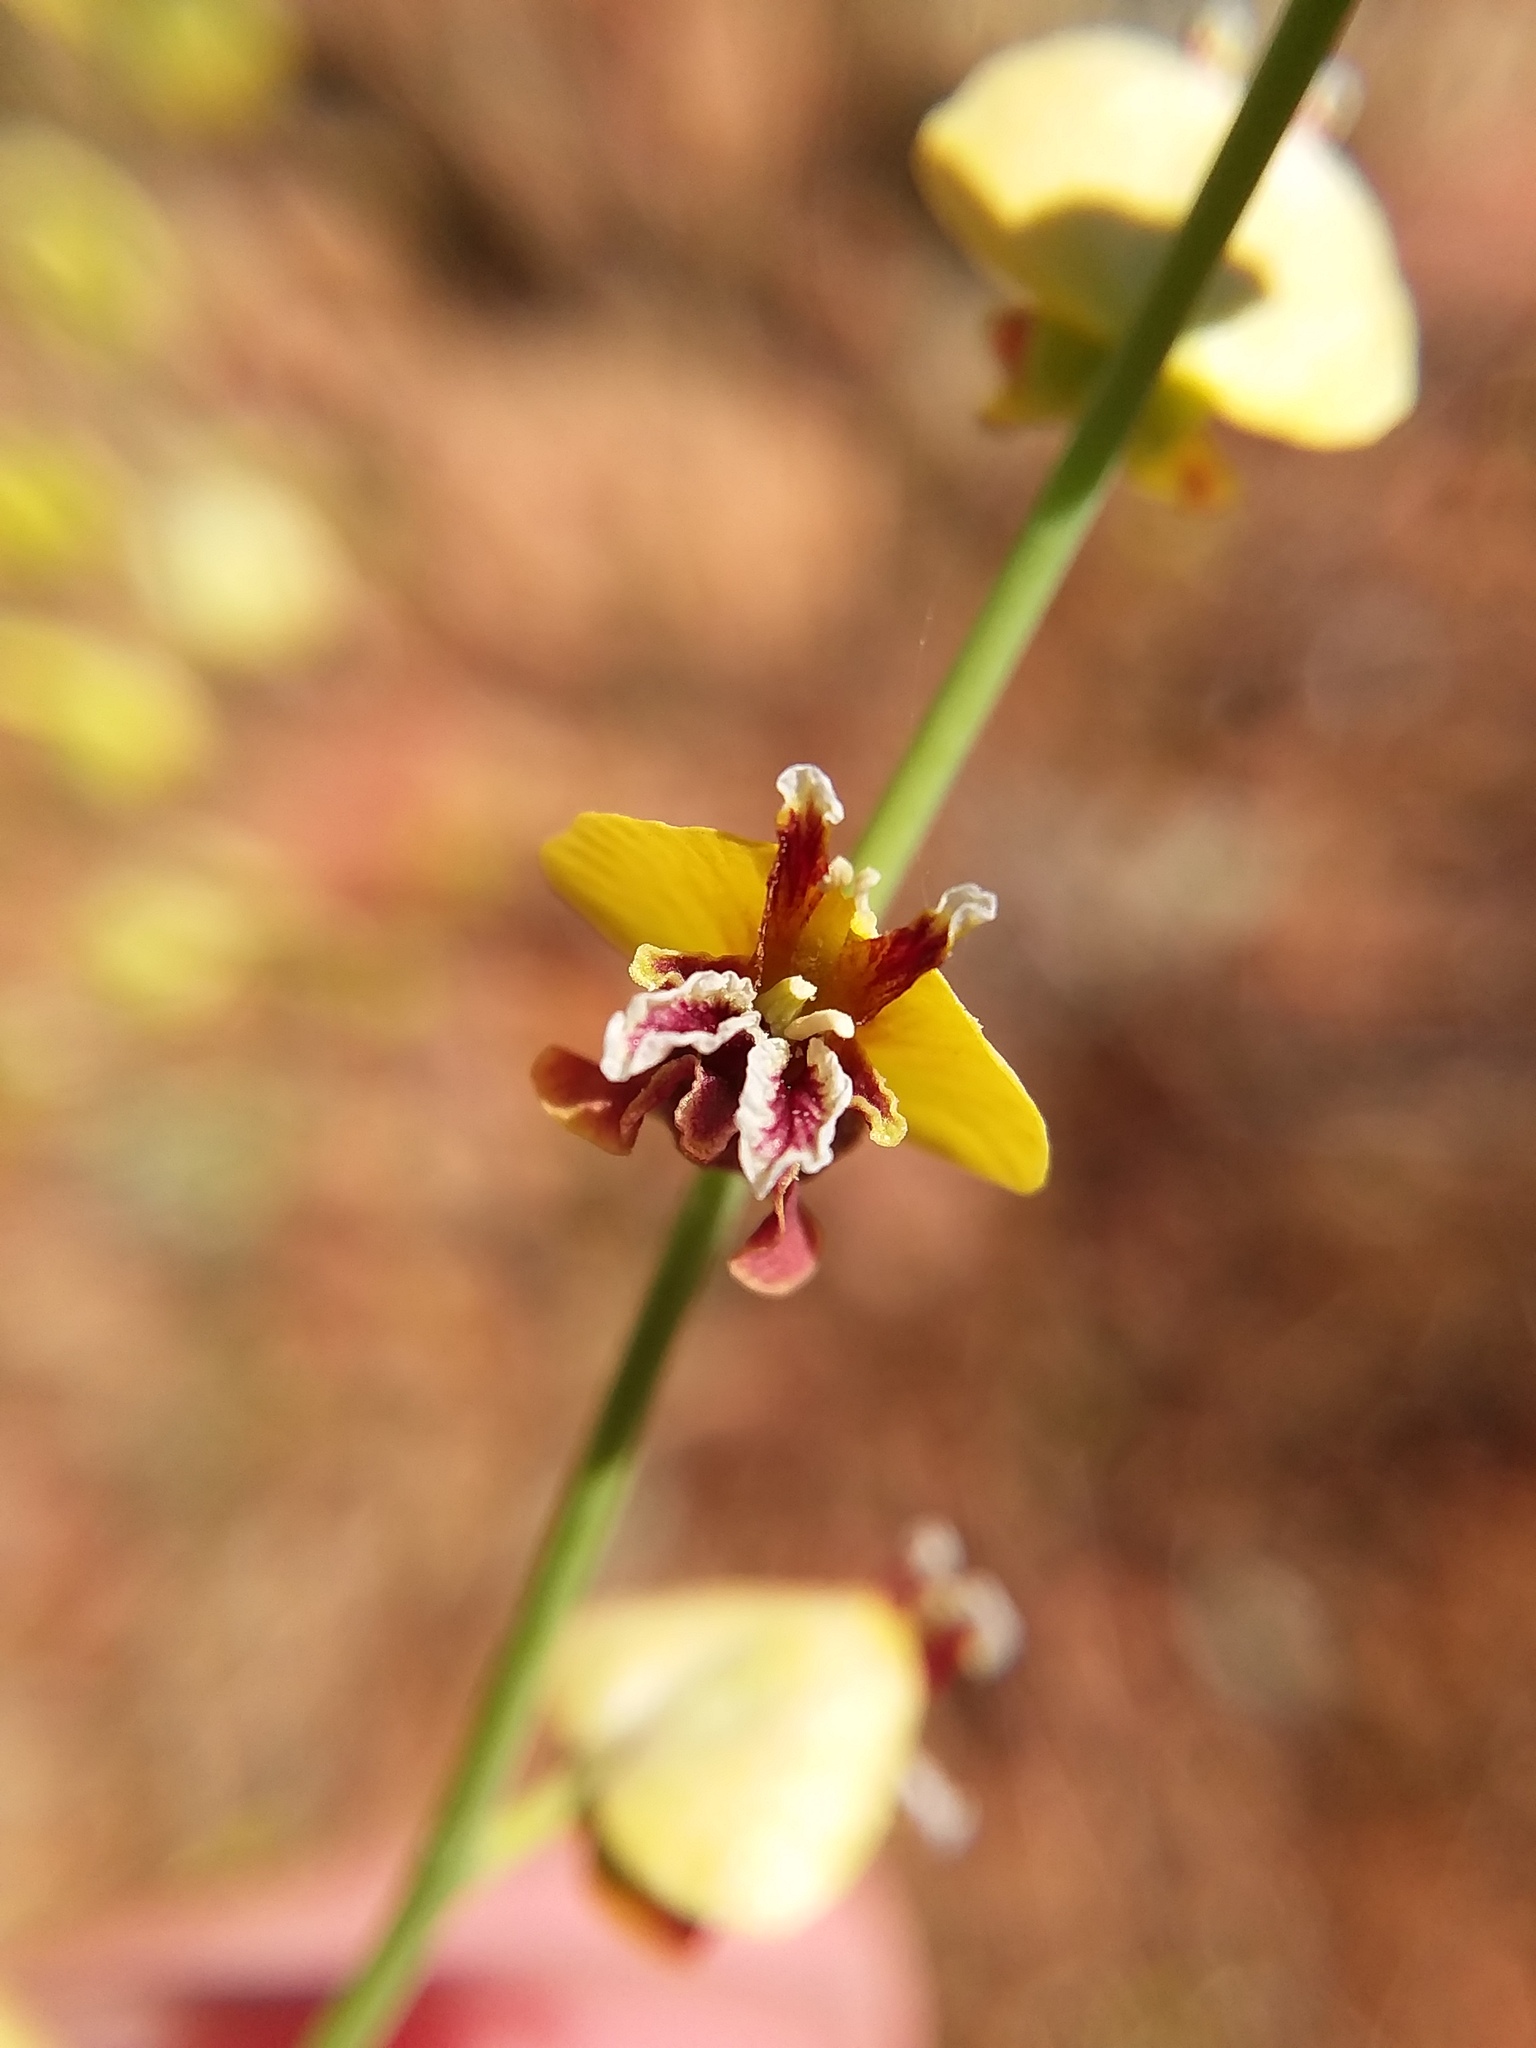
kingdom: Plantae
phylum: Tracheophyta
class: Magnoliopsida
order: Brassicales
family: Brassicaceae
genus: Streptanthus
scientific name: Streptanthus polygaloides
